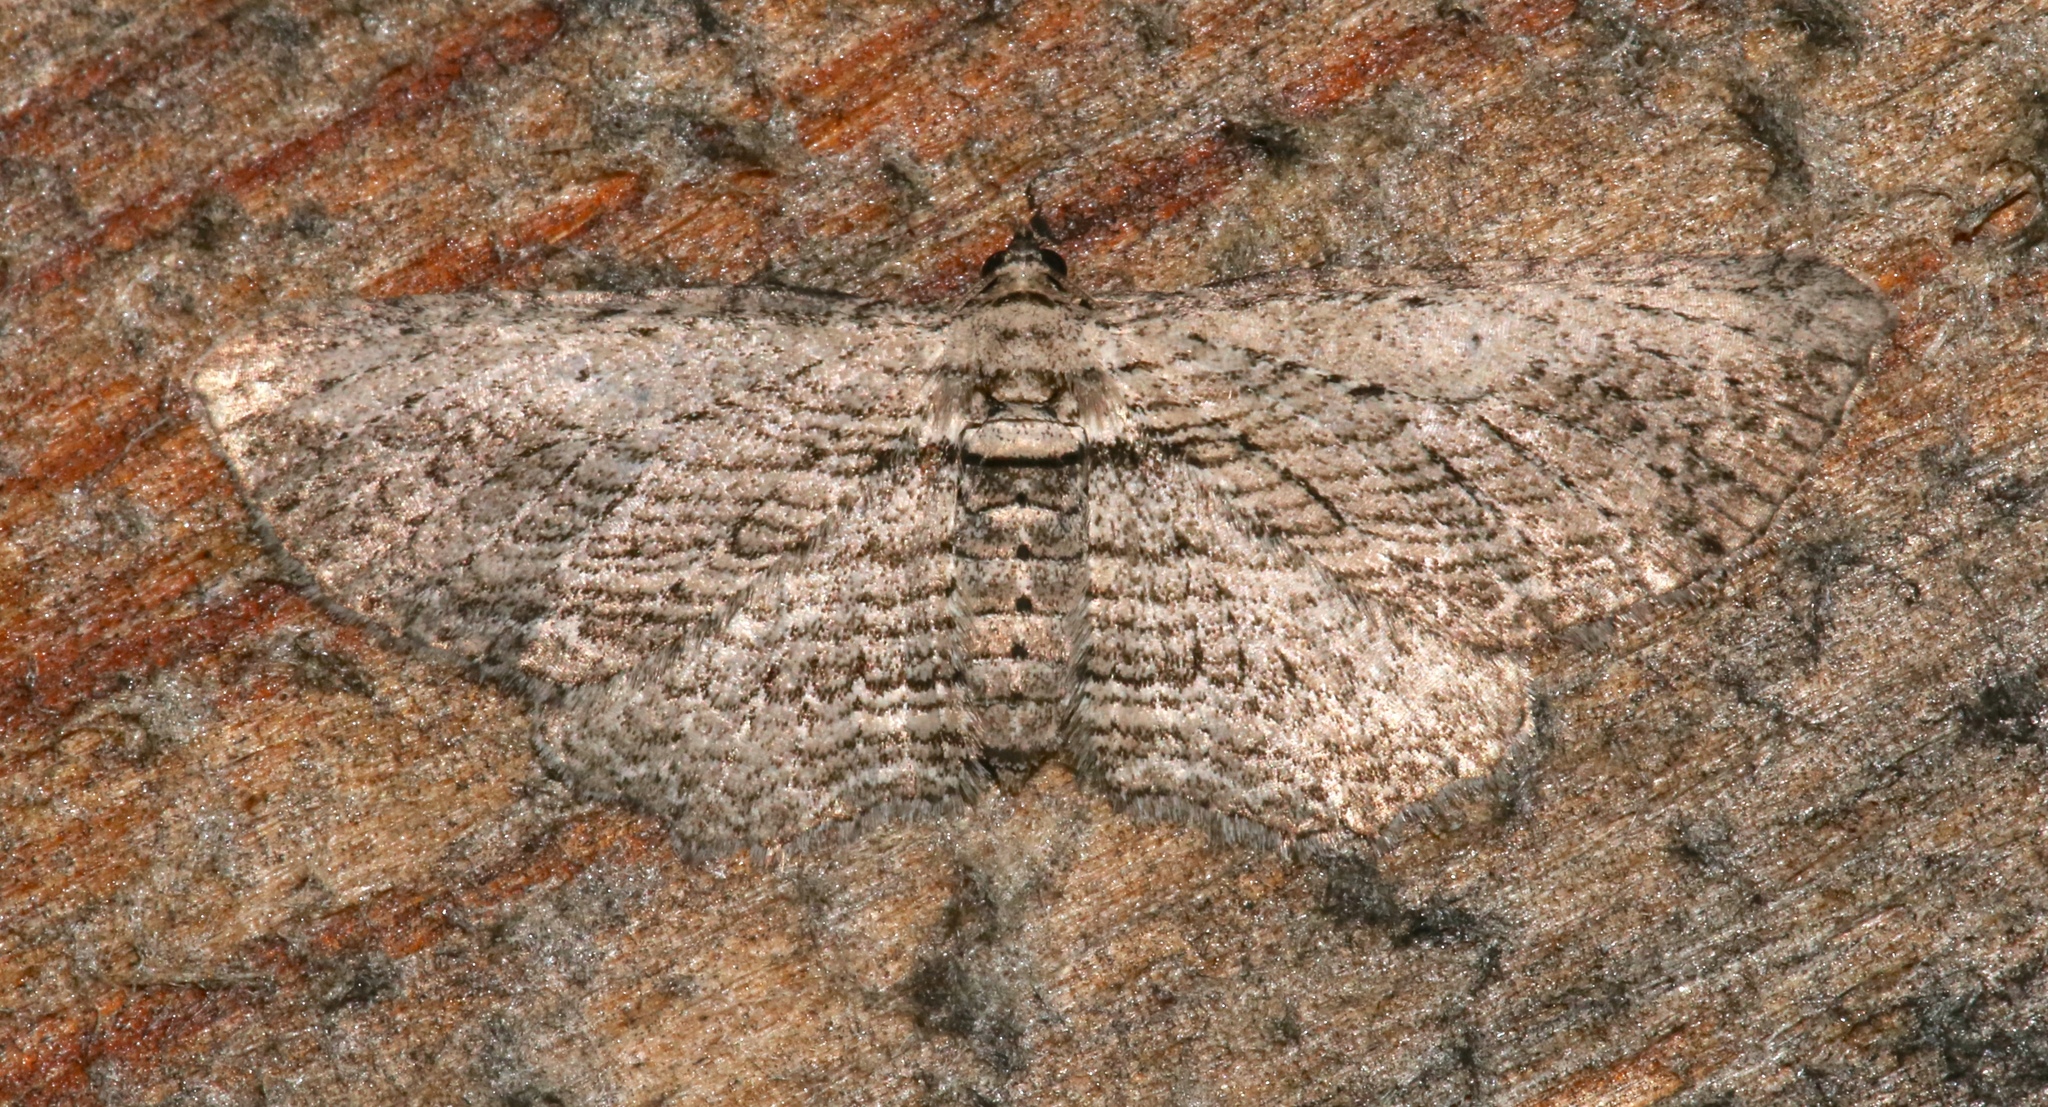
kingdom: Animalia
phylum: Arthropoda
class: Insecta
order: Lepidoptera
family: Geometridae
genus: Horisme
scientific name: Horisme intestinata
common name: Brown bark carpet
